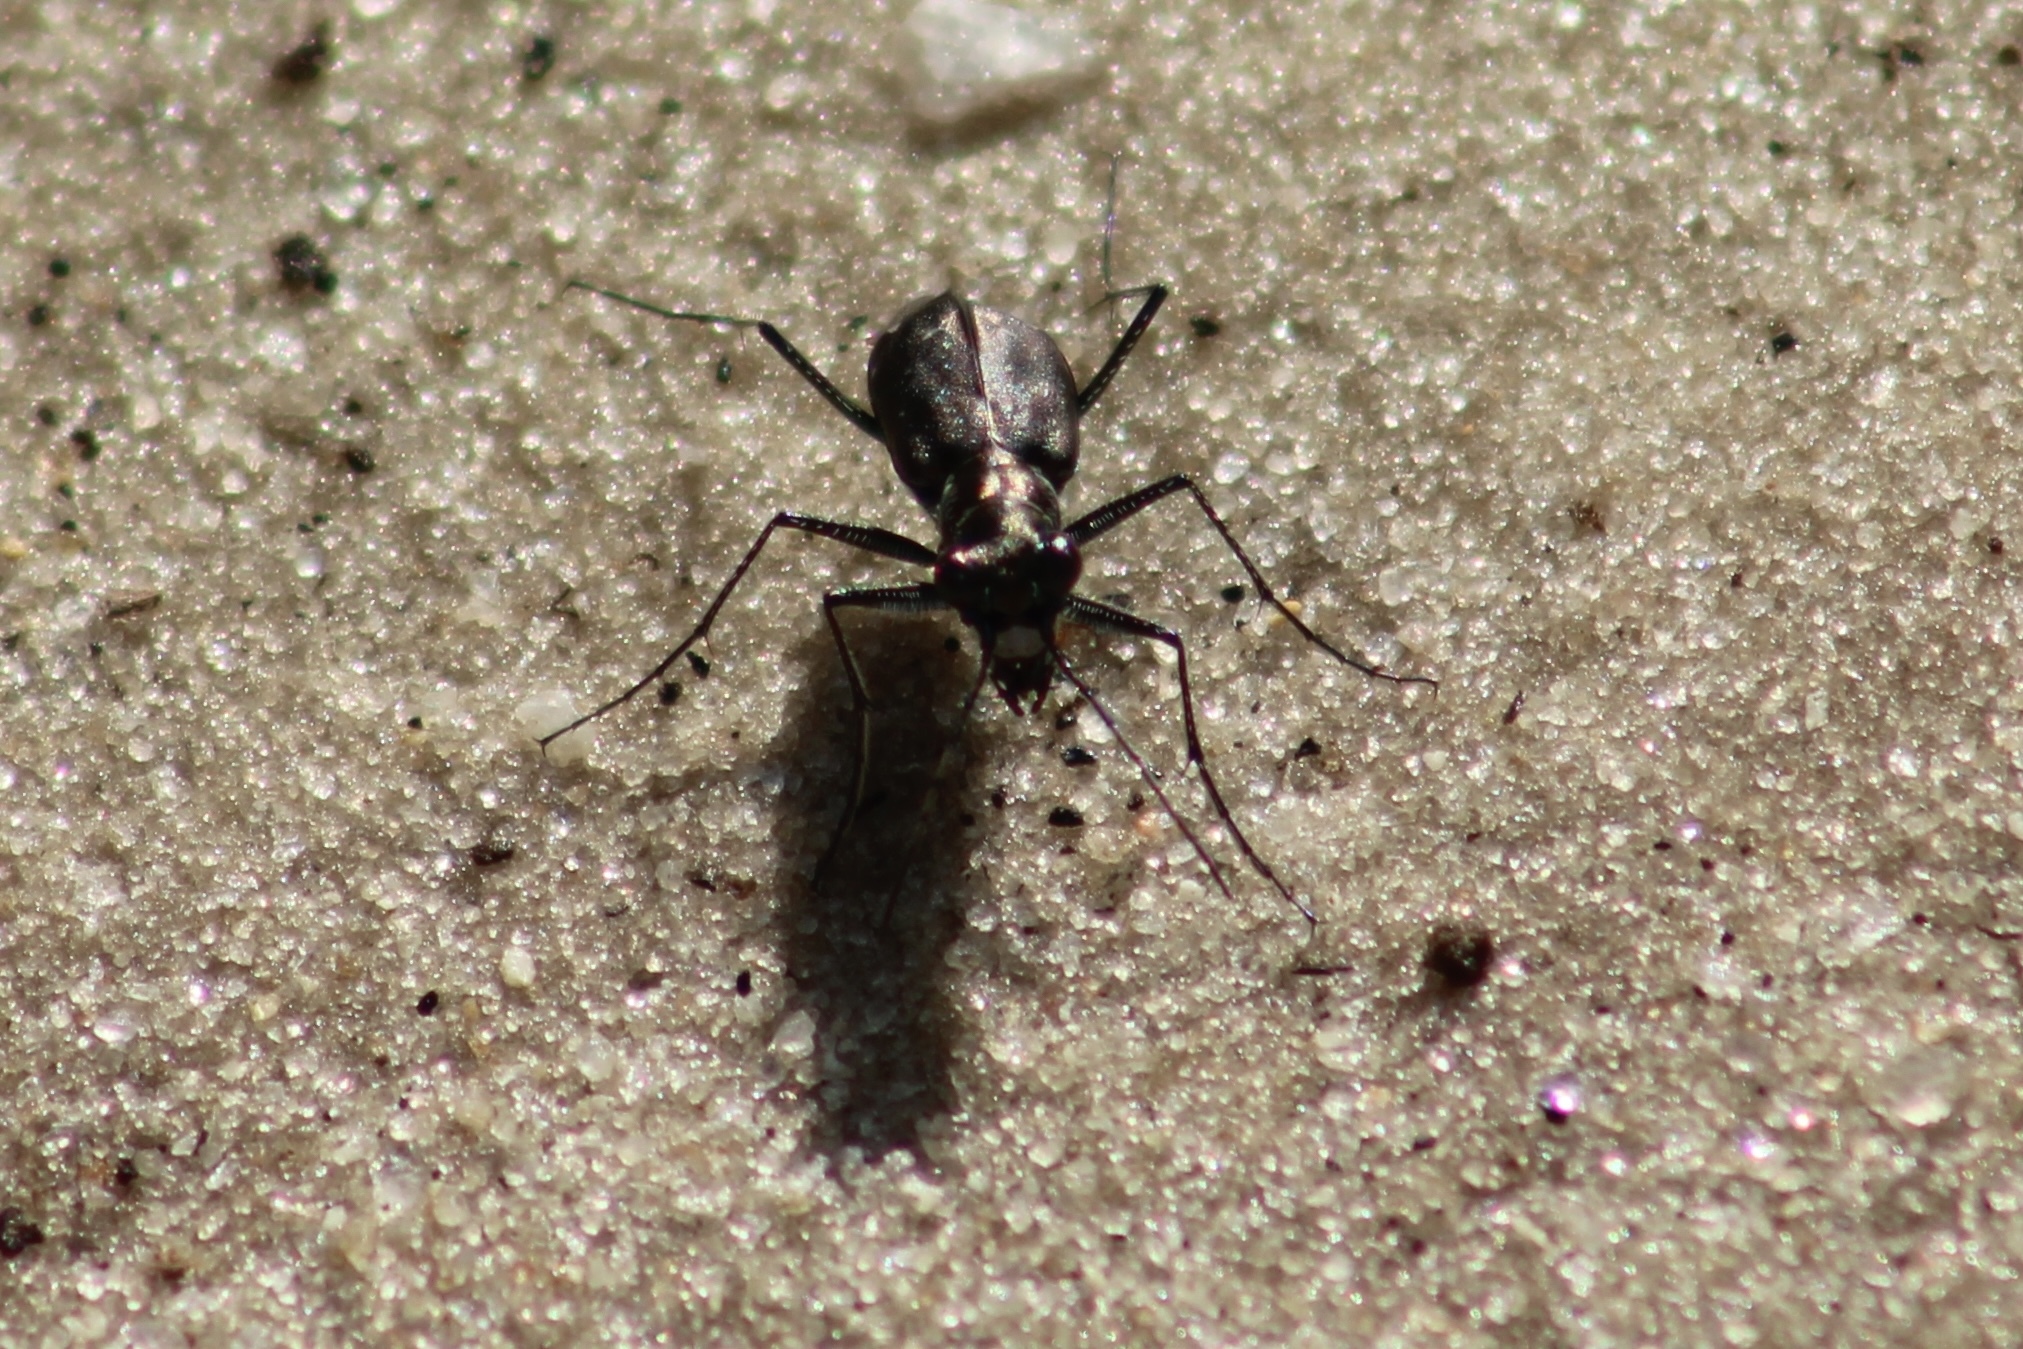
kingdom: Animalia
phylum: Arthropoda
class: Insecta
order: Coleoptera
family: Carabidae
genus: Cicindela
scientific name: Cicindela punctulata
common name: Punctured tiger beetle
